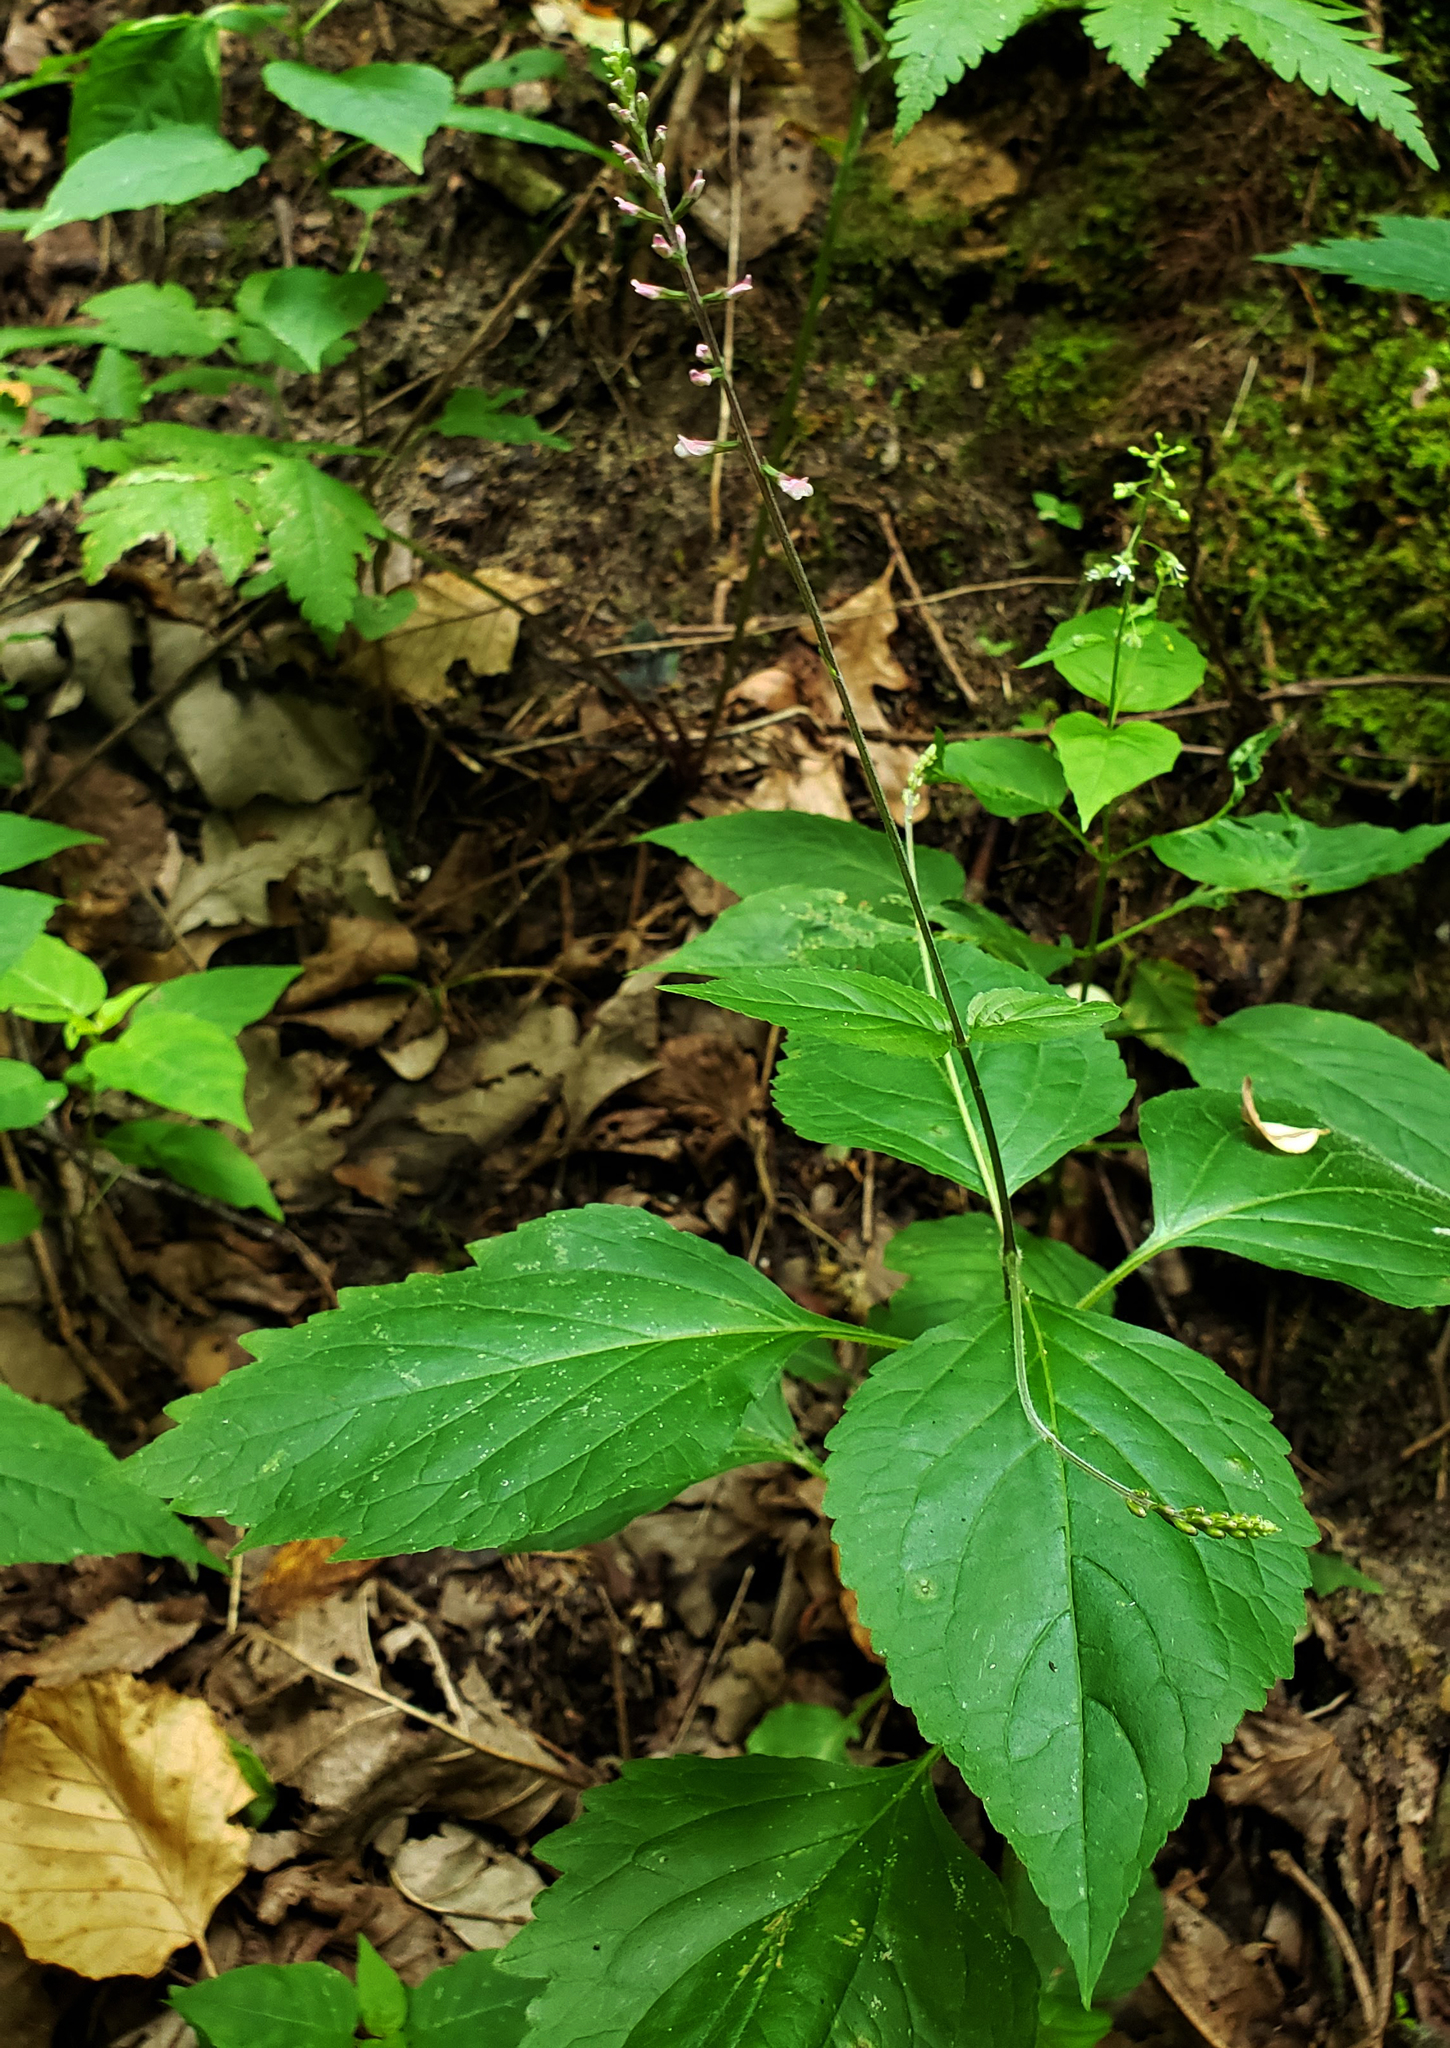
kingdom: Plantae
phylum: Tracheophyta
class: Magnoliopsida
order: Lamiales
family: Phrymaceae
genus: Phryma
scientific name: Phryma leptostachya
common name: American lopseed
